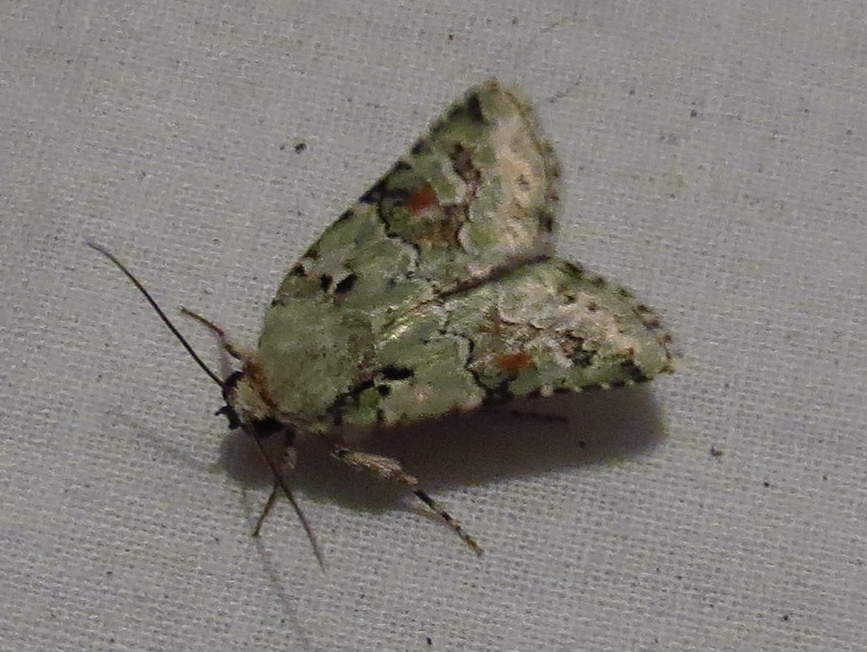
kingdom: Animalia
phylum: Arthropoda
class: Insecta
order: Lepidoptera
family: Noctuidae
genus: Lacinipolia
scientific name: Lacinipolia laudabilis
